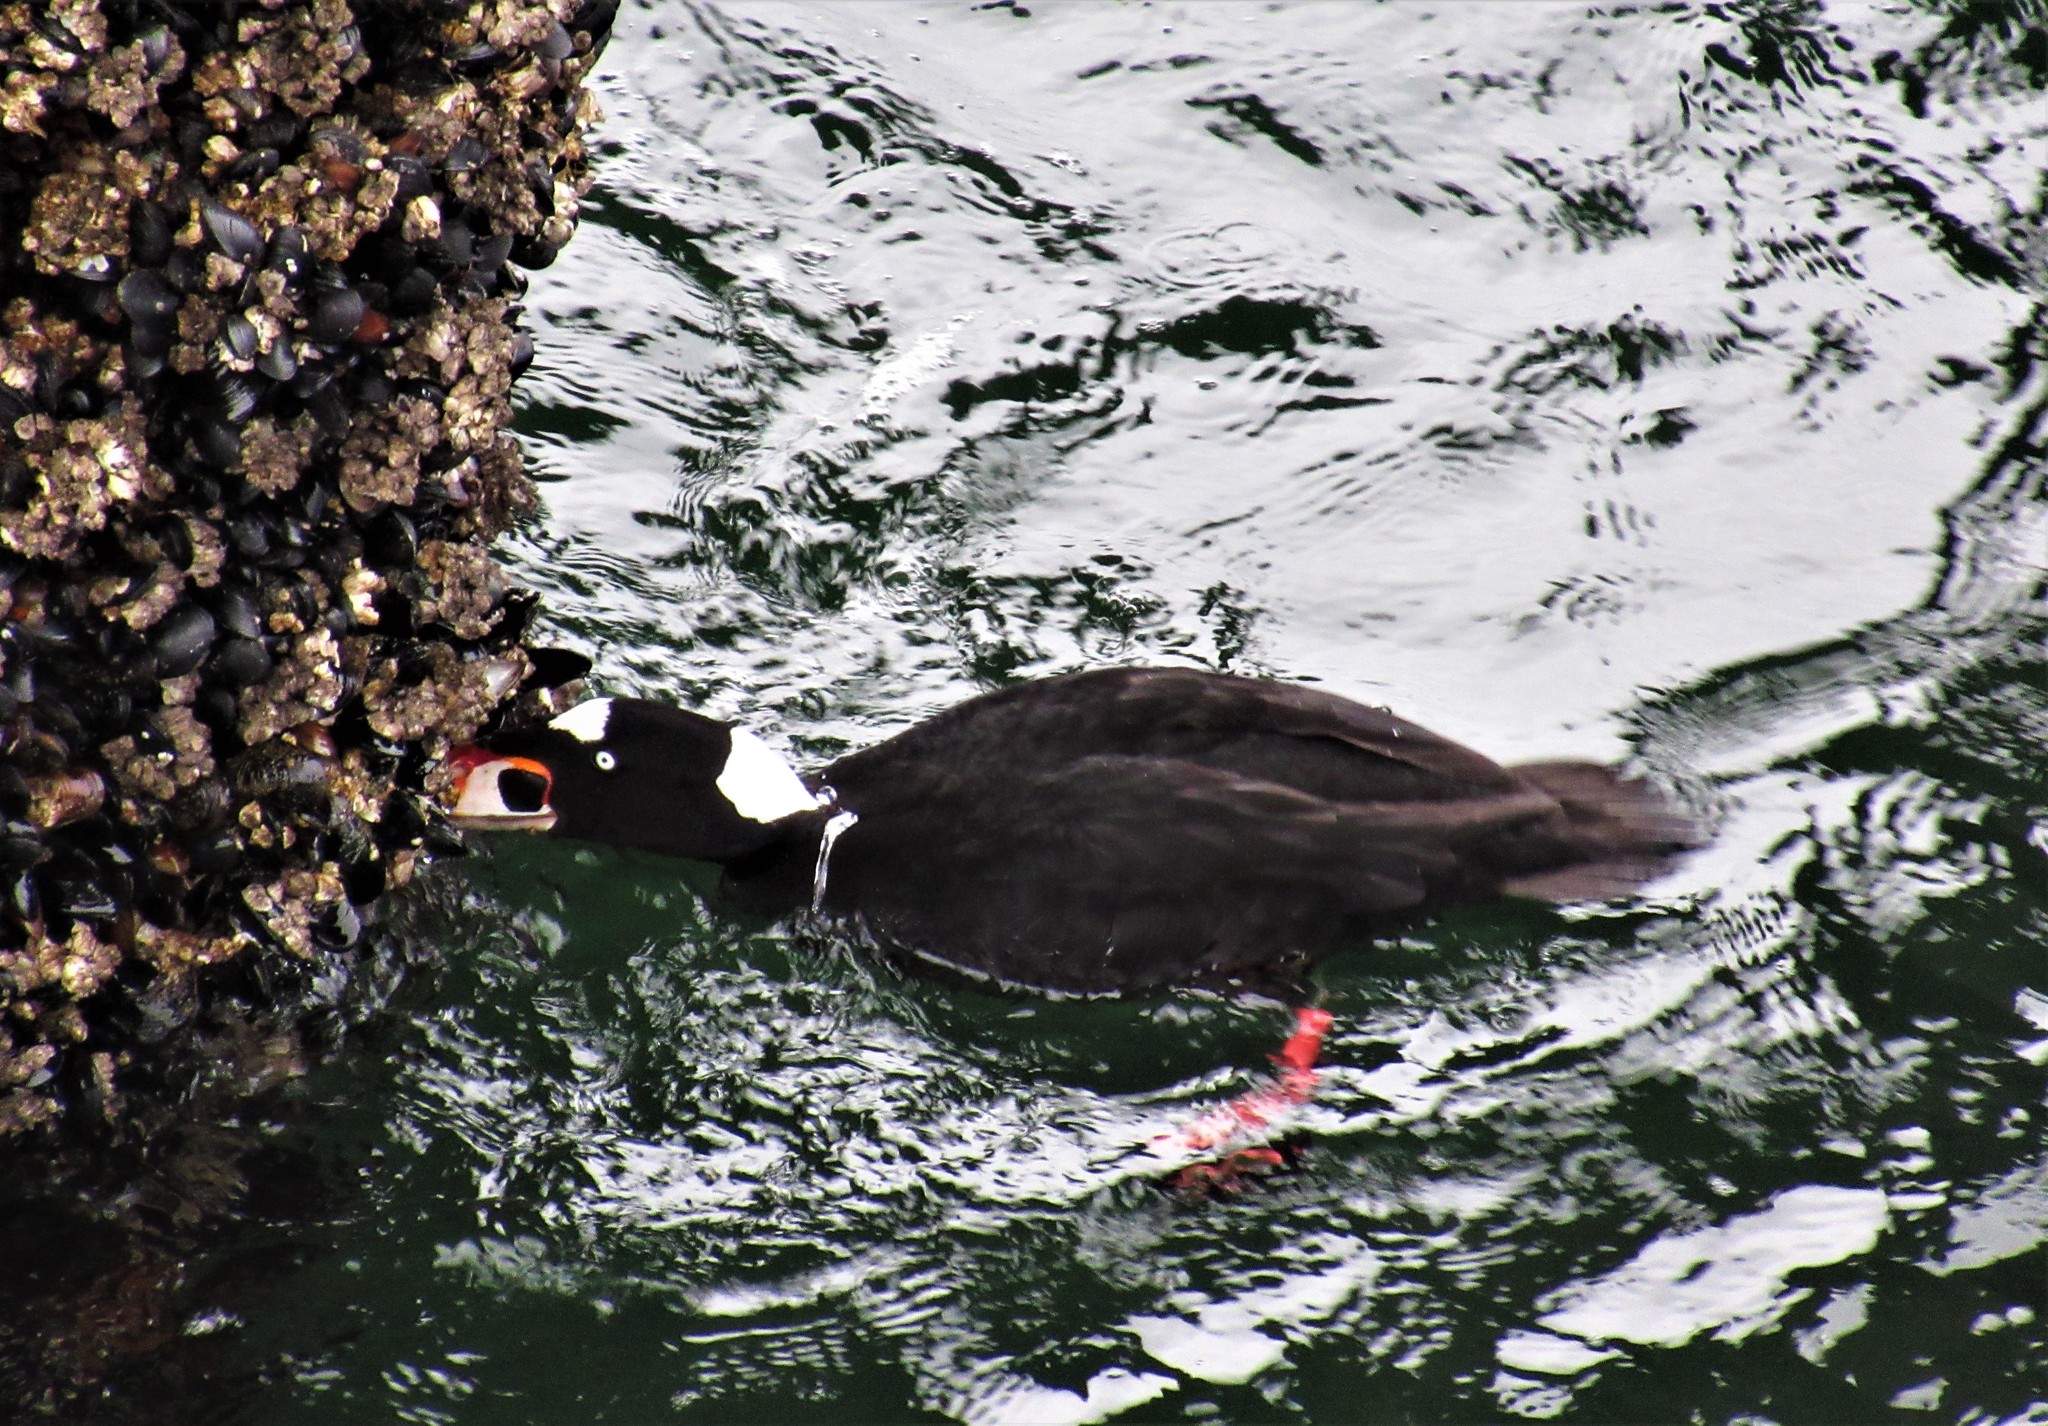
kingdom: Animalia
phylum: Chordata
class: Aves
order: Anseriformes
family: Anatidae
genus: Melanitta
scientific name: Melanitta perspicillata
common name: Surf scoter
